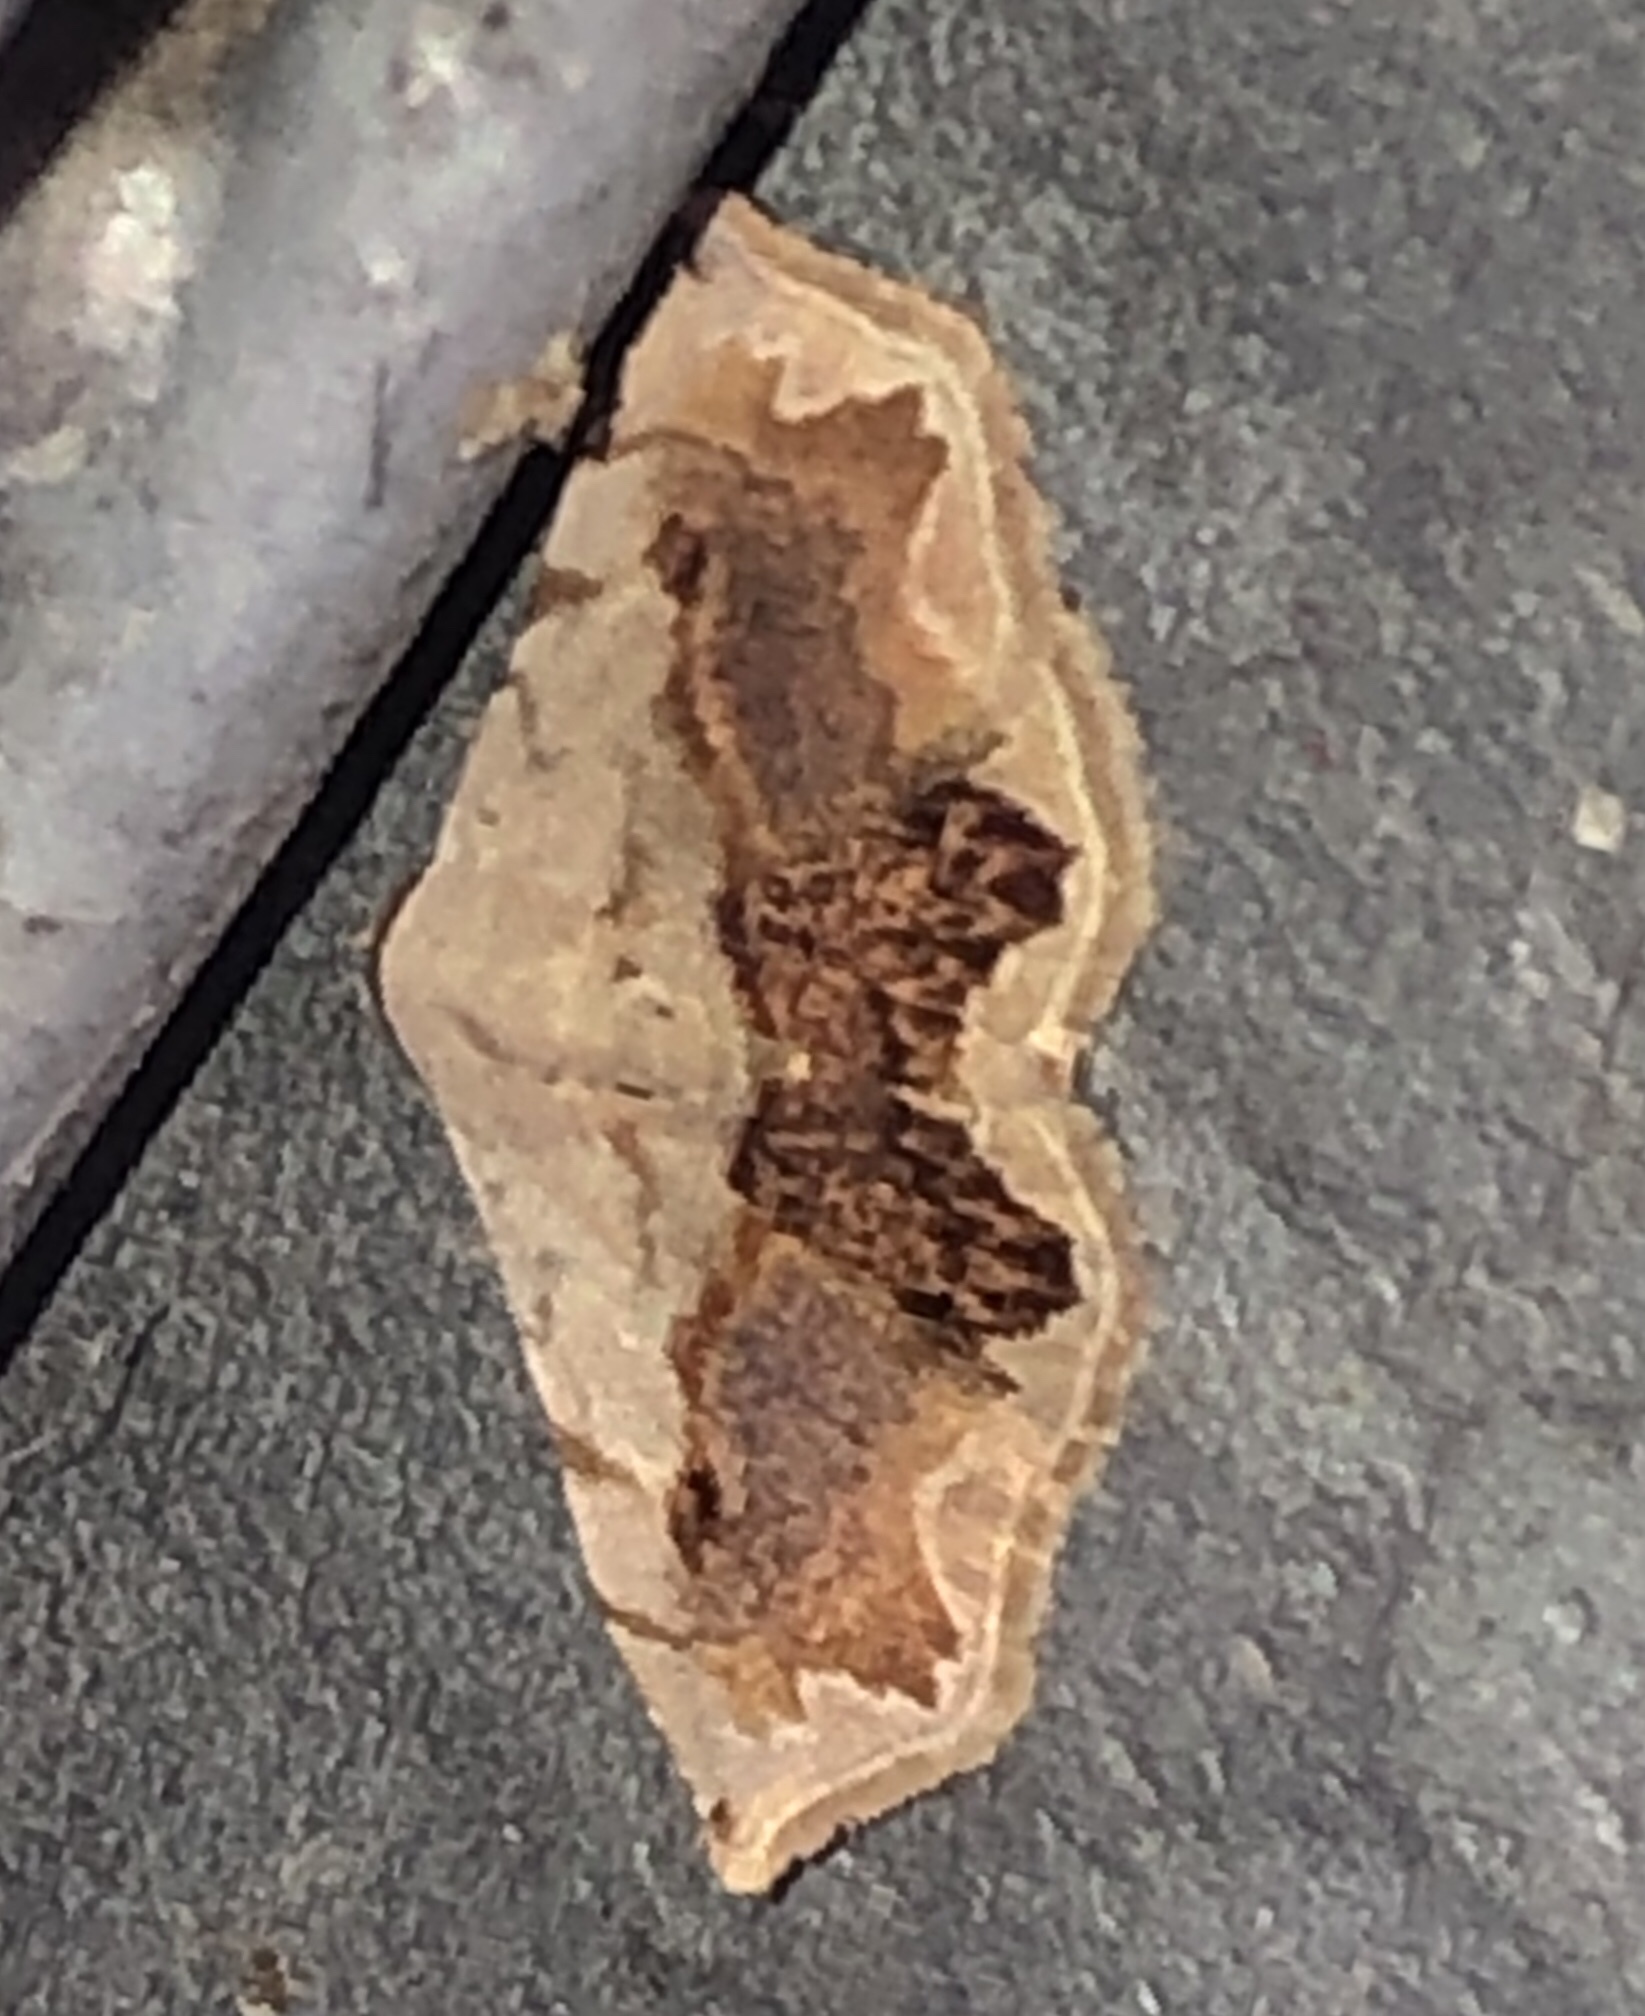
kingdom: Animalia
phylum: Arthropoda
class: Insecta
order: Lepidoptera
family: Noctuidae
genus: Eublemma
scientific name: Eublemma
